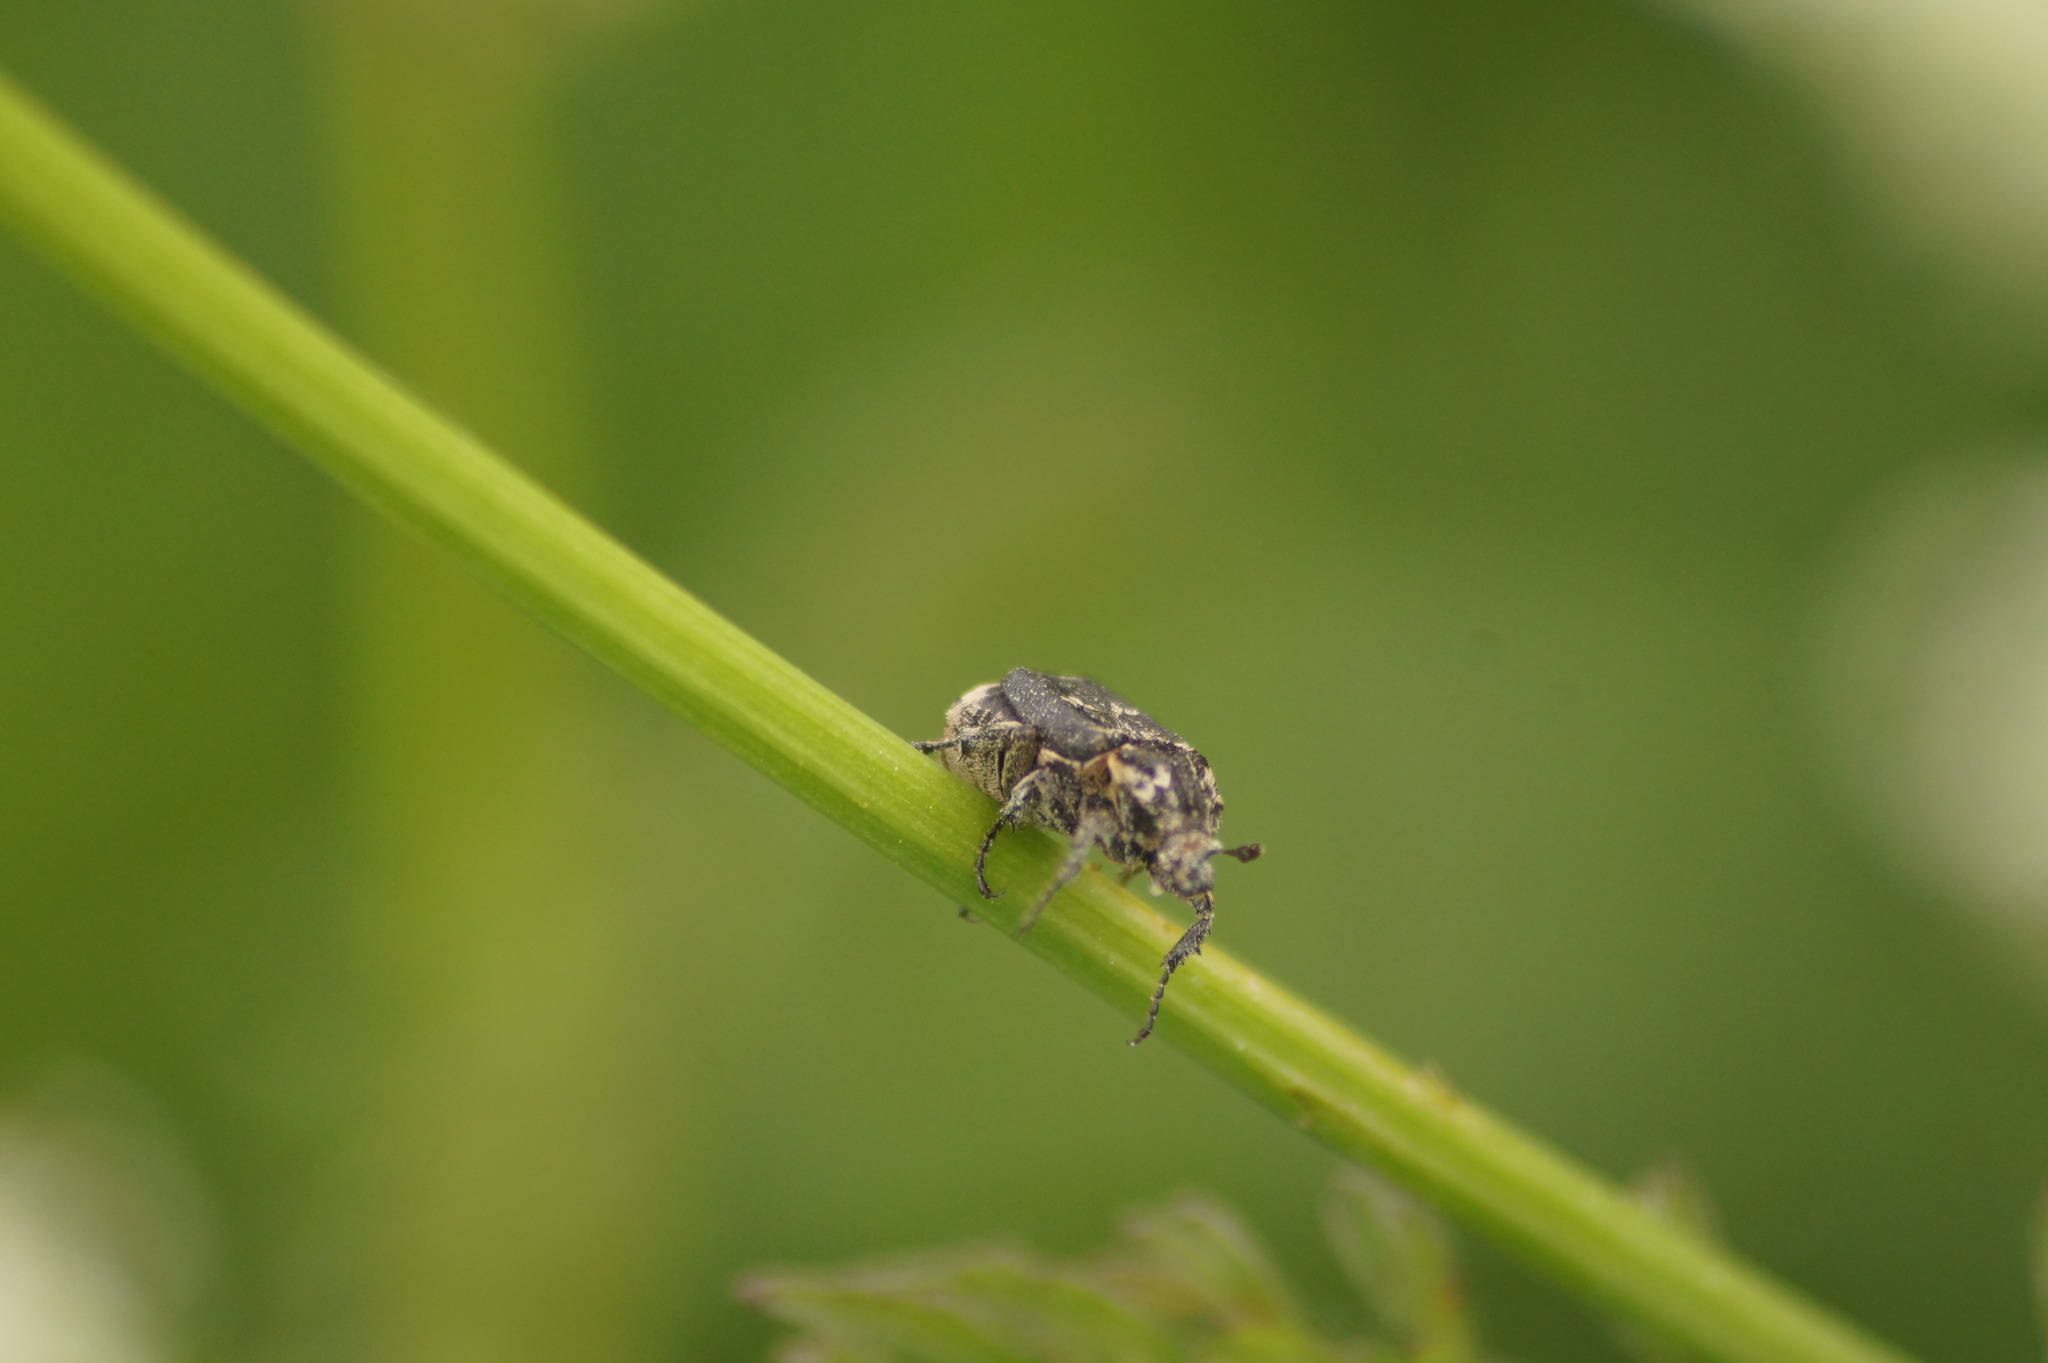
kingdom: Animalia
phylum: Arthropoda
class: Insecta
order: Coleoptera
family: Scarabaeidae
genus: Valgus
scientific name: Valgus hemipterus
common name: Bug flower chafer
